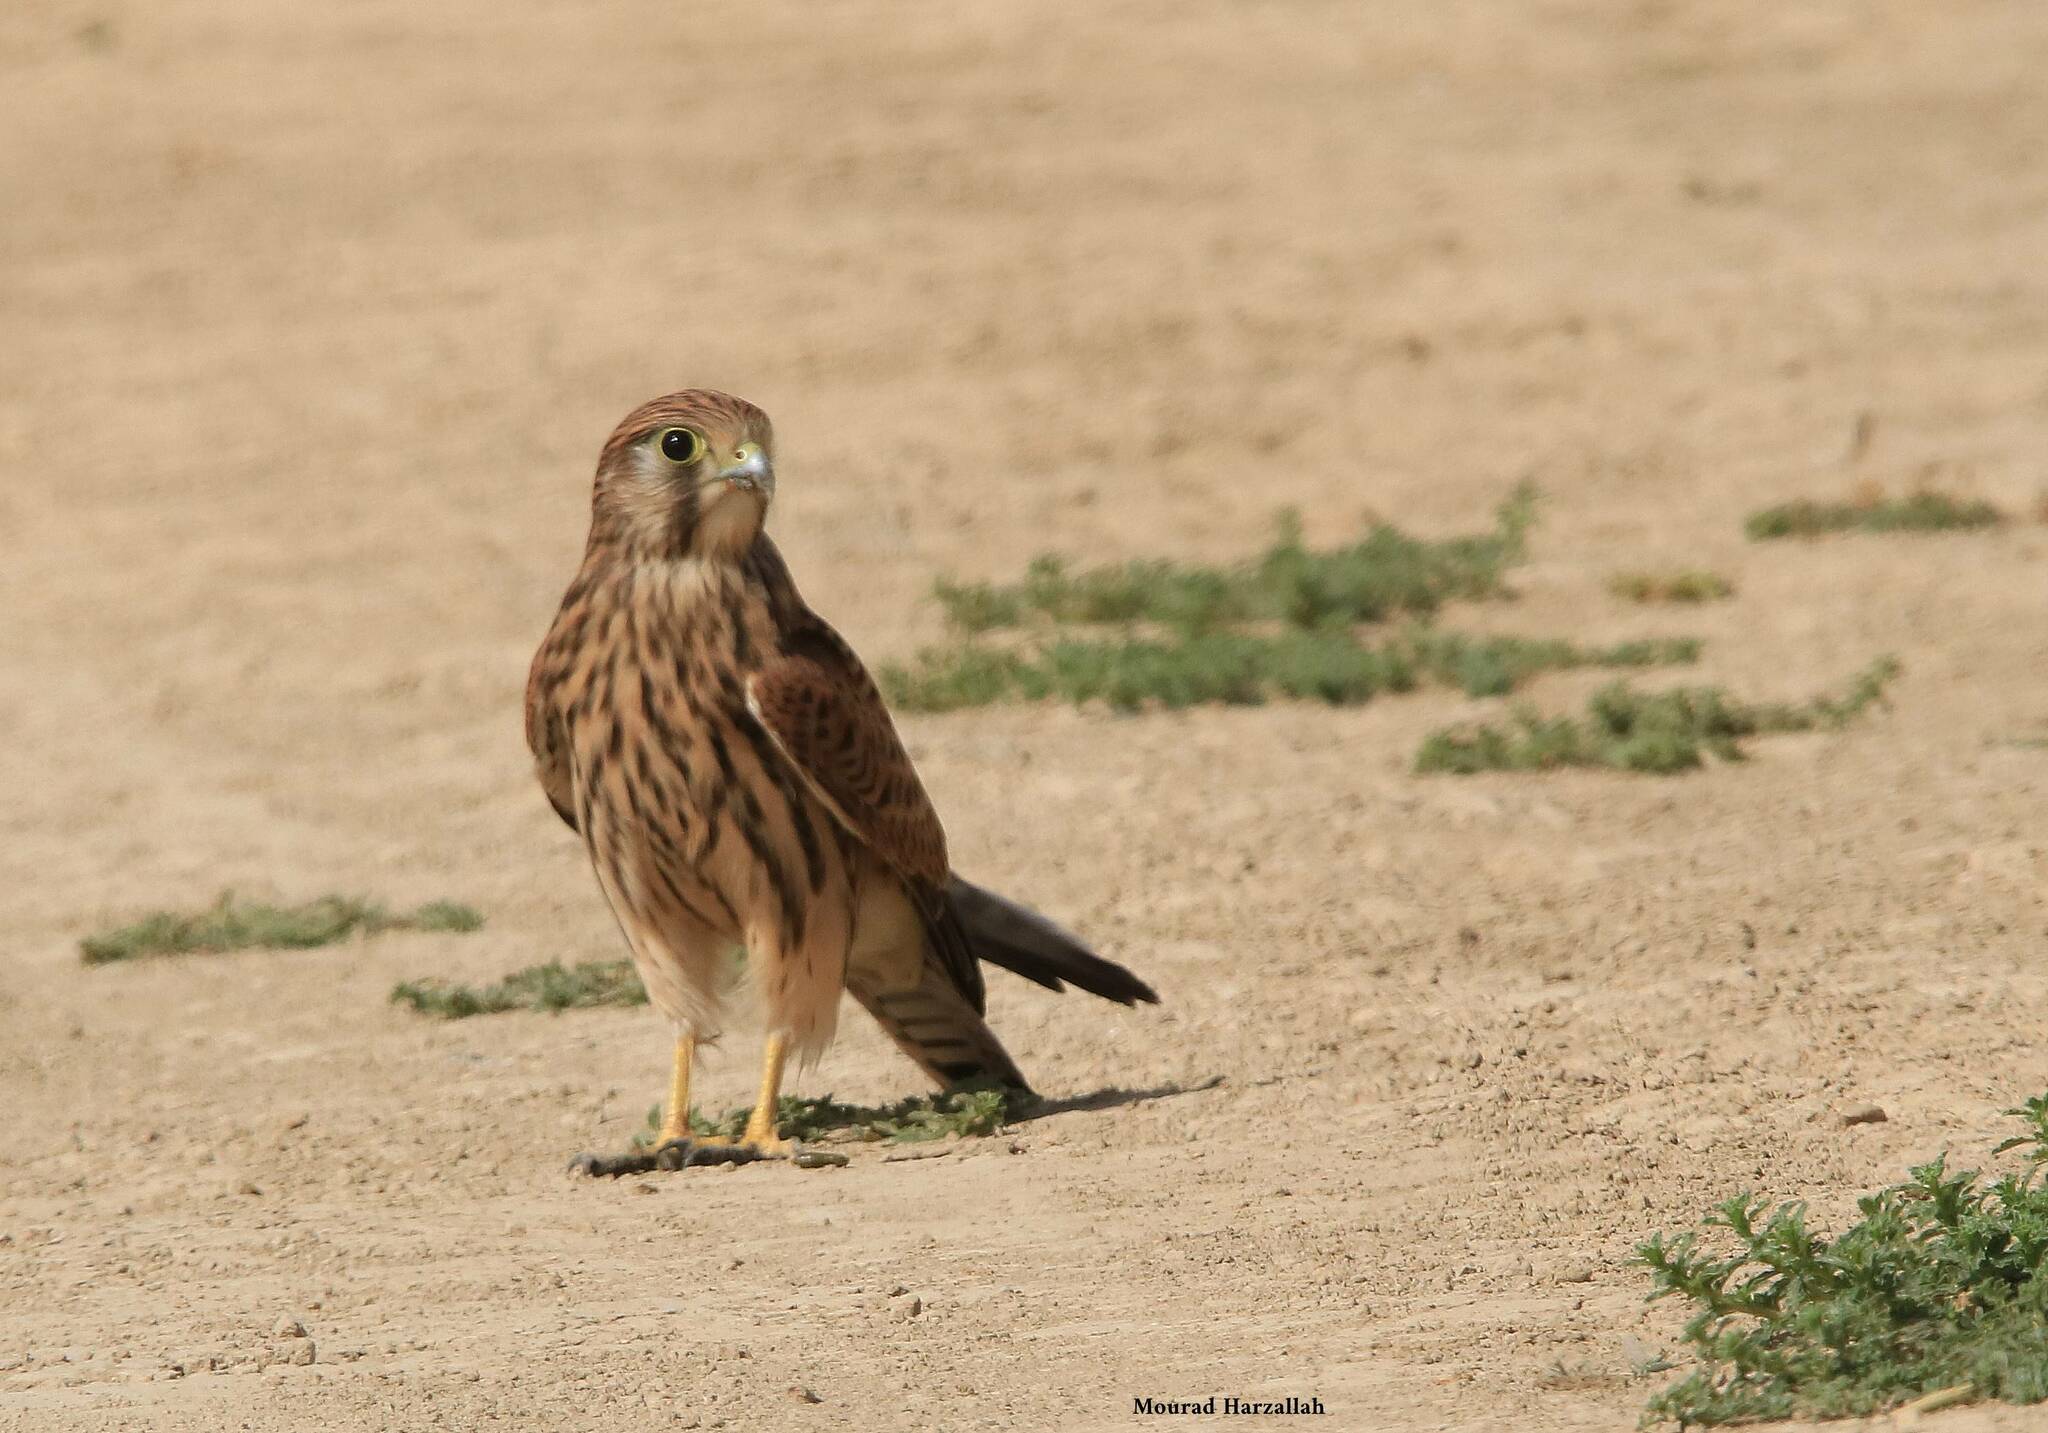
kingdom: Animalia
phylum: Chordata
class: Aves
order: Falconiformes
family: Falconidae
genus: Falco
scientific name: Falco tinnunculus
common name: Common kestrel
